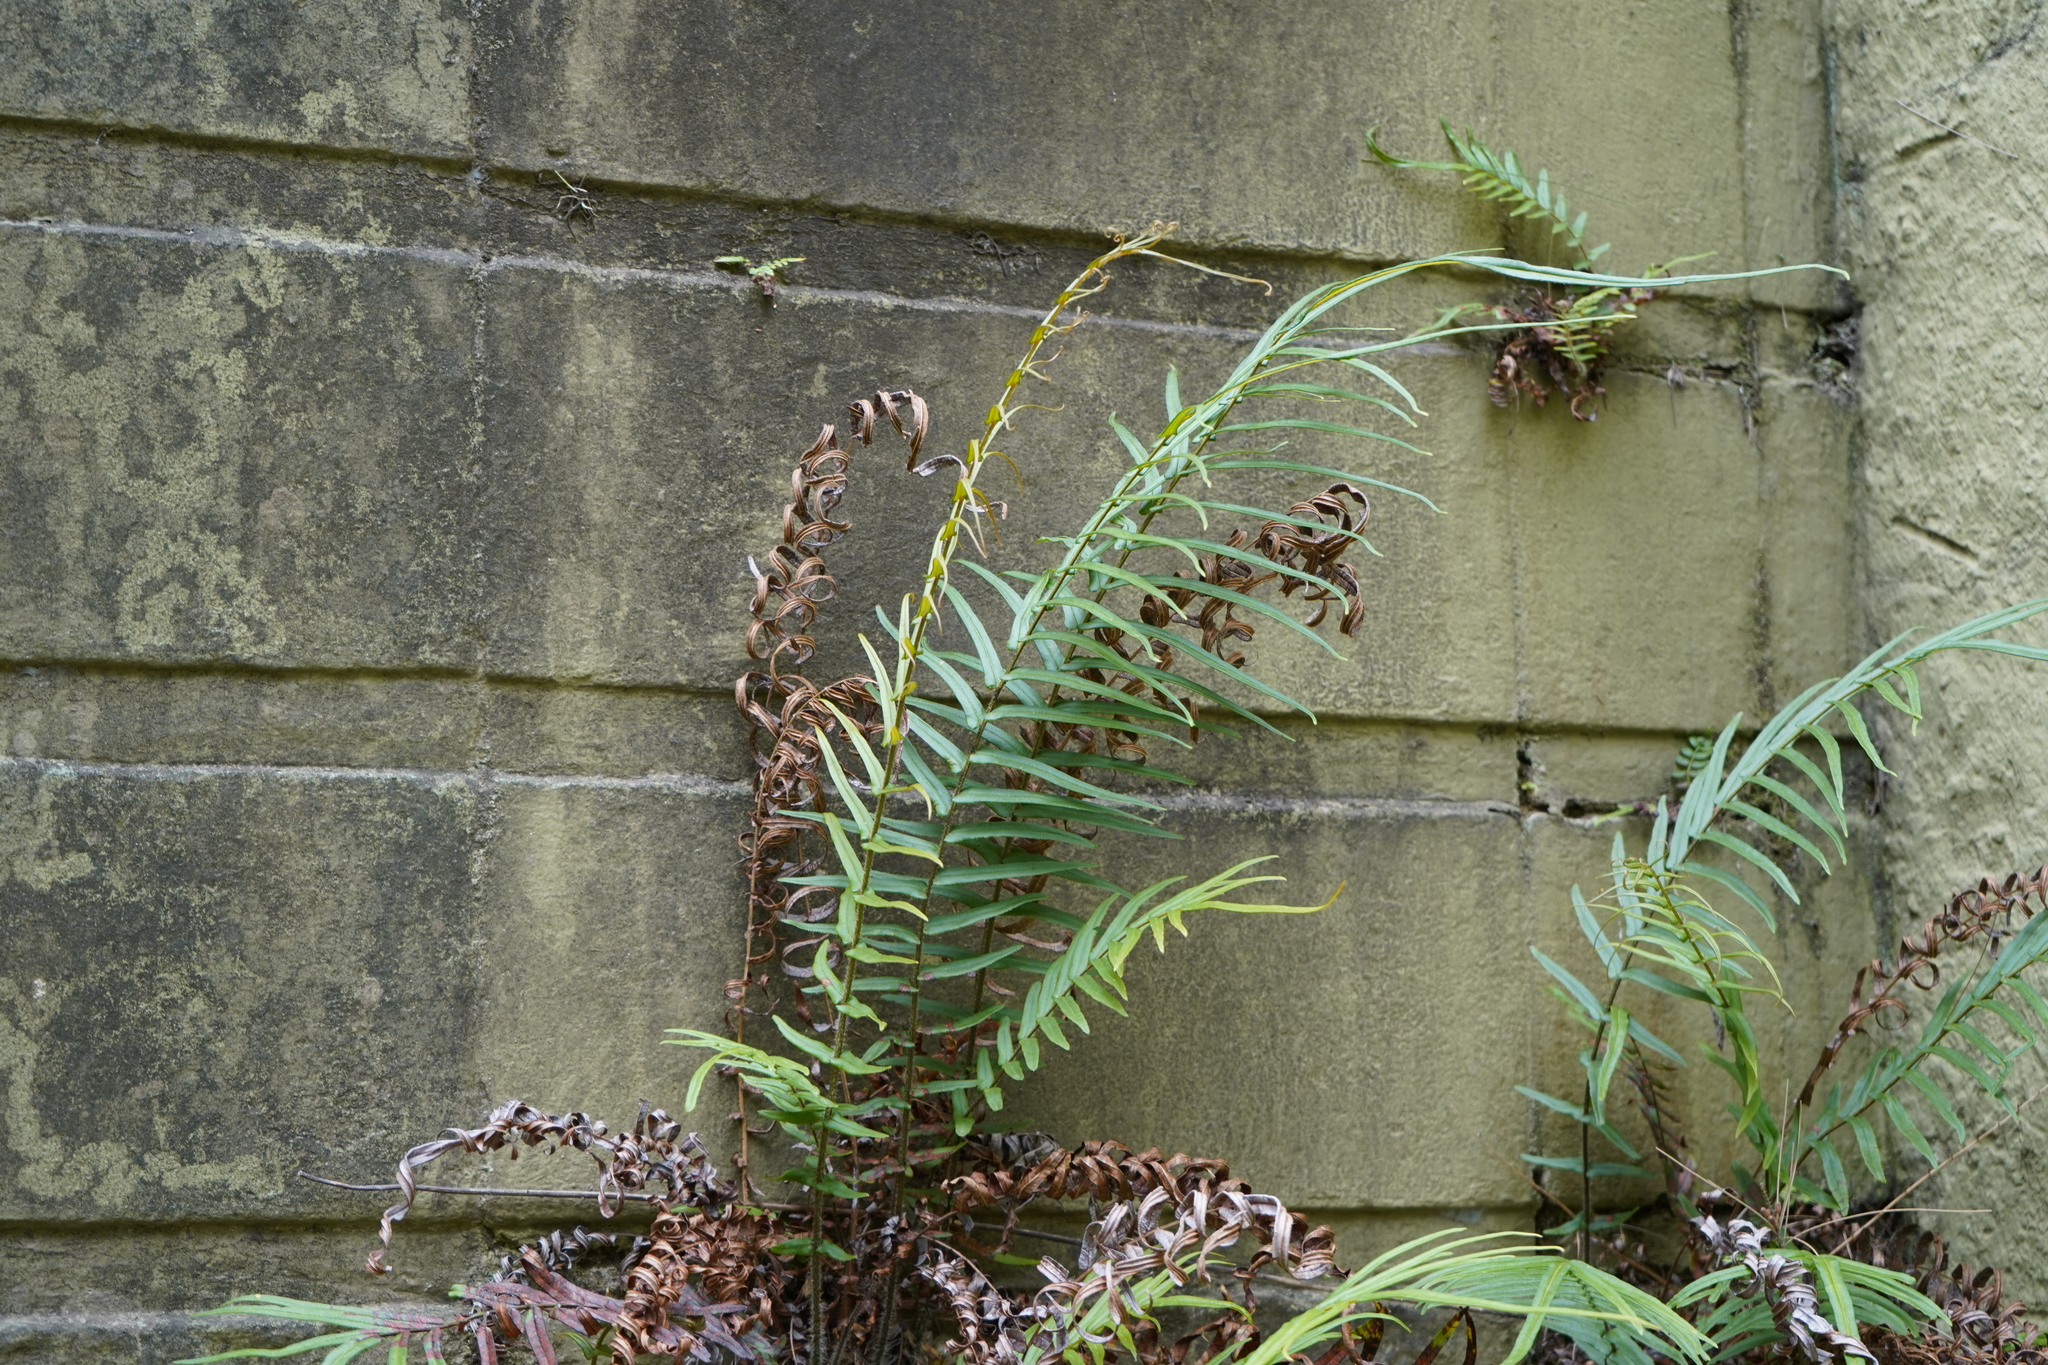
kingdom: Plantae
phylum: Tracheophyta
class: Polypodiopsida
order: Polypodiales
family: Pteridaceae
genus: Pteris
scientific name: Pteris vittata
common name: Ladder brake
